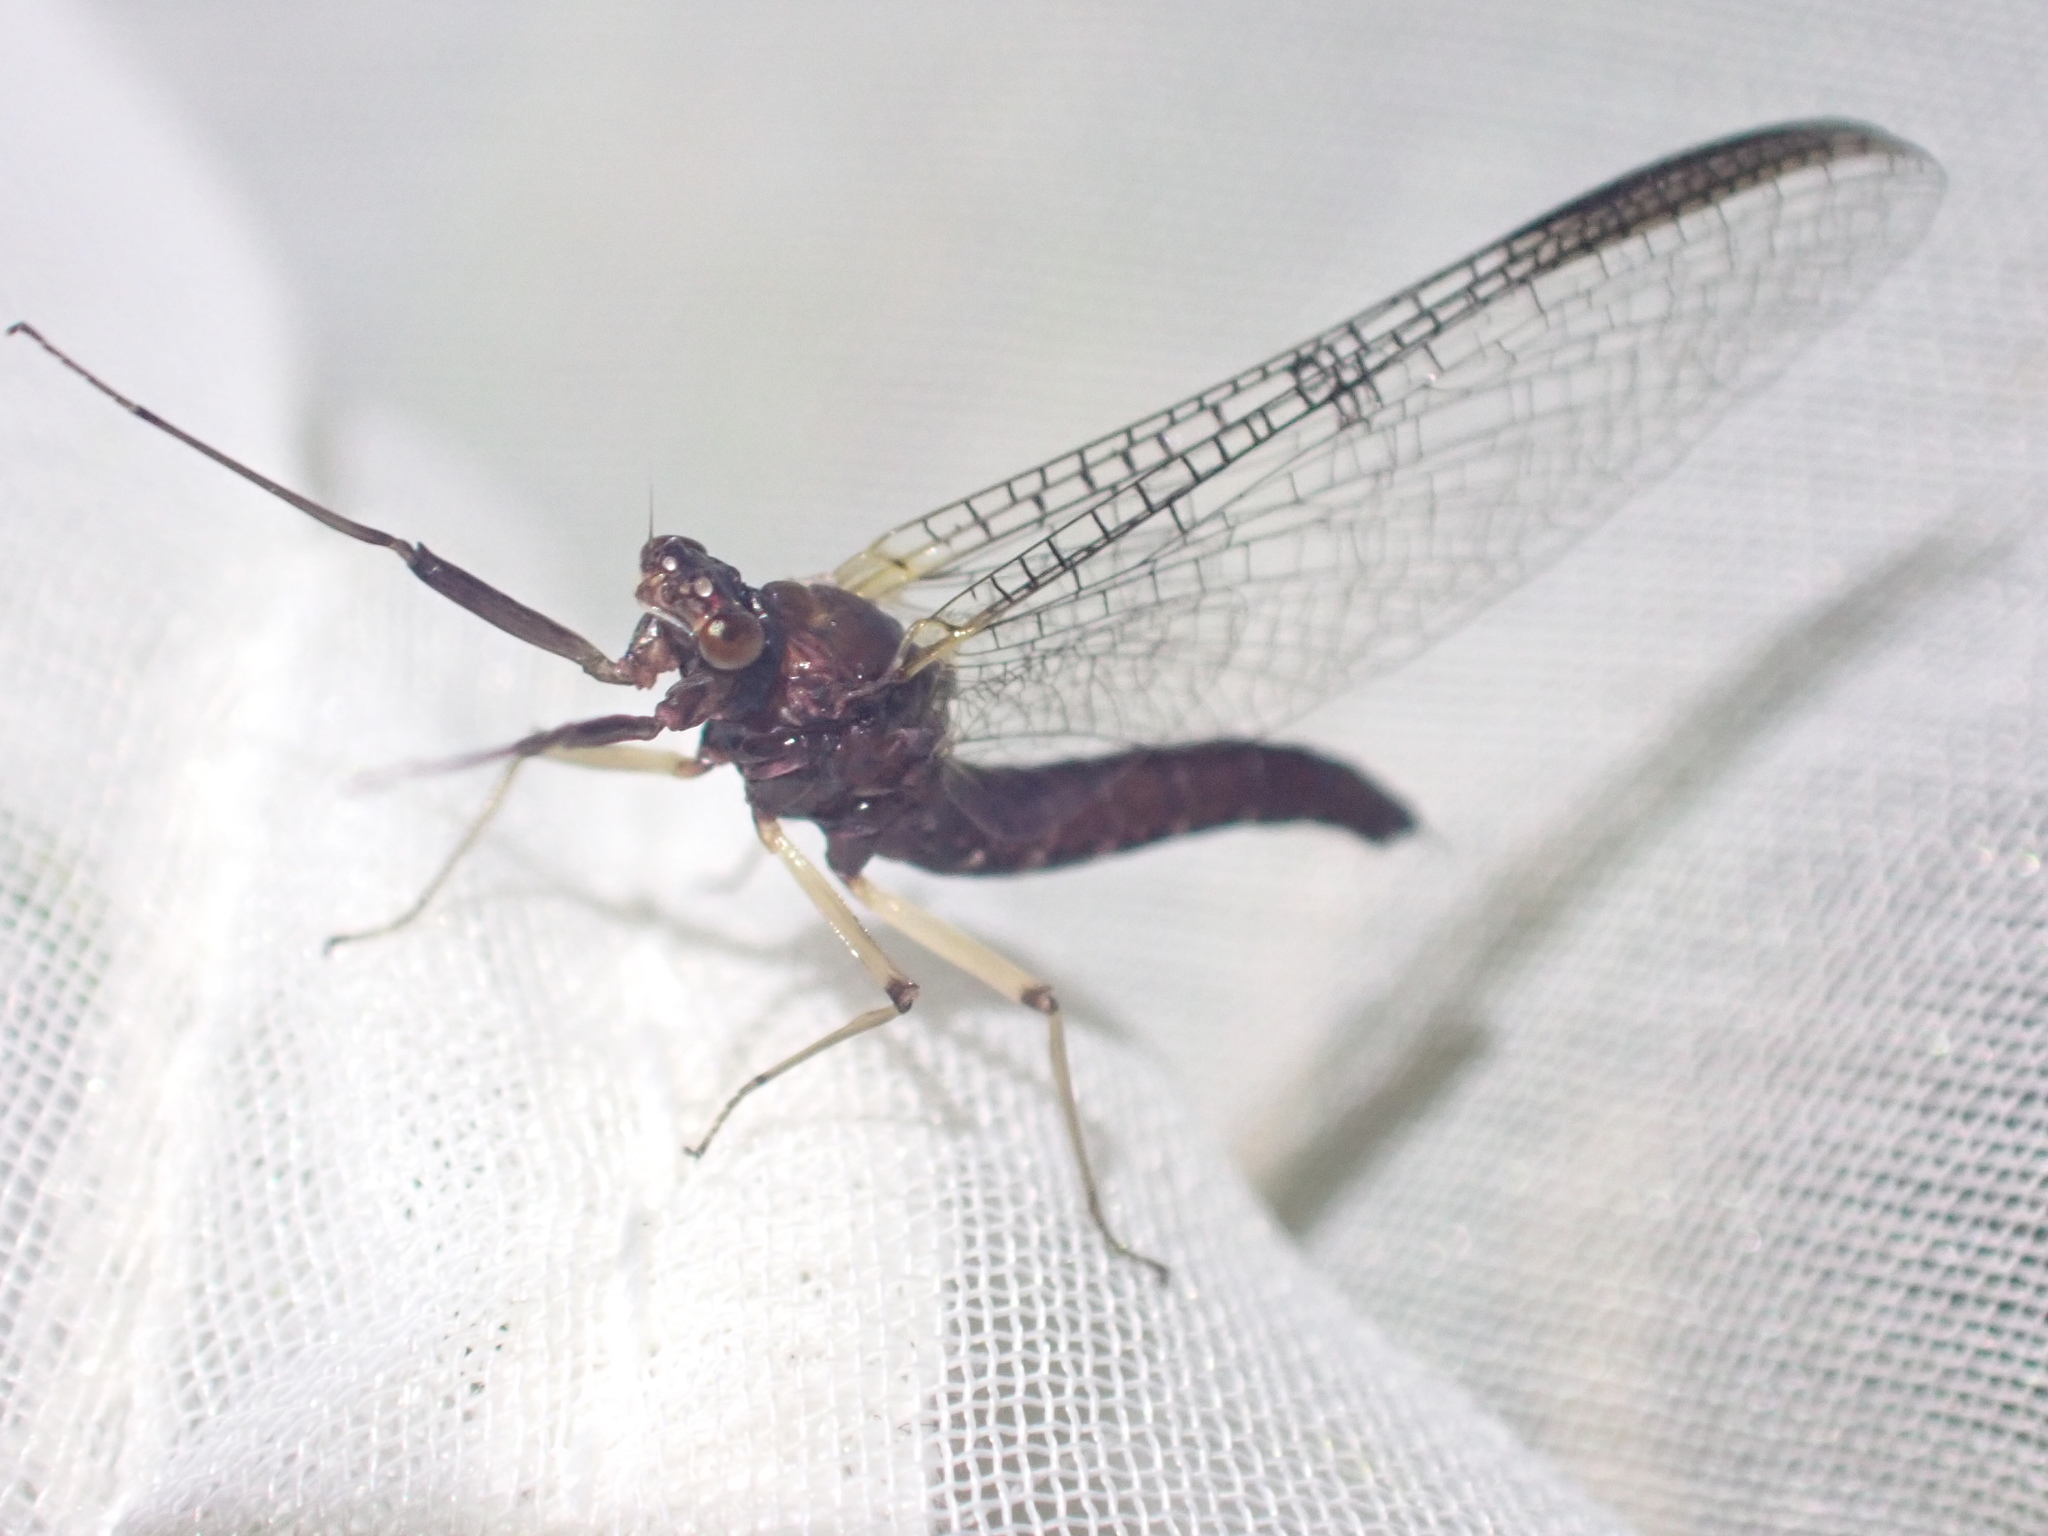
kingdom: Animalia
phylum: Arthropoda
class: Insecta
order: Ephemeroptera
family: Coloburiscidae
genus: Coloburiscus
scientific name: Coloburiscus humeralis
